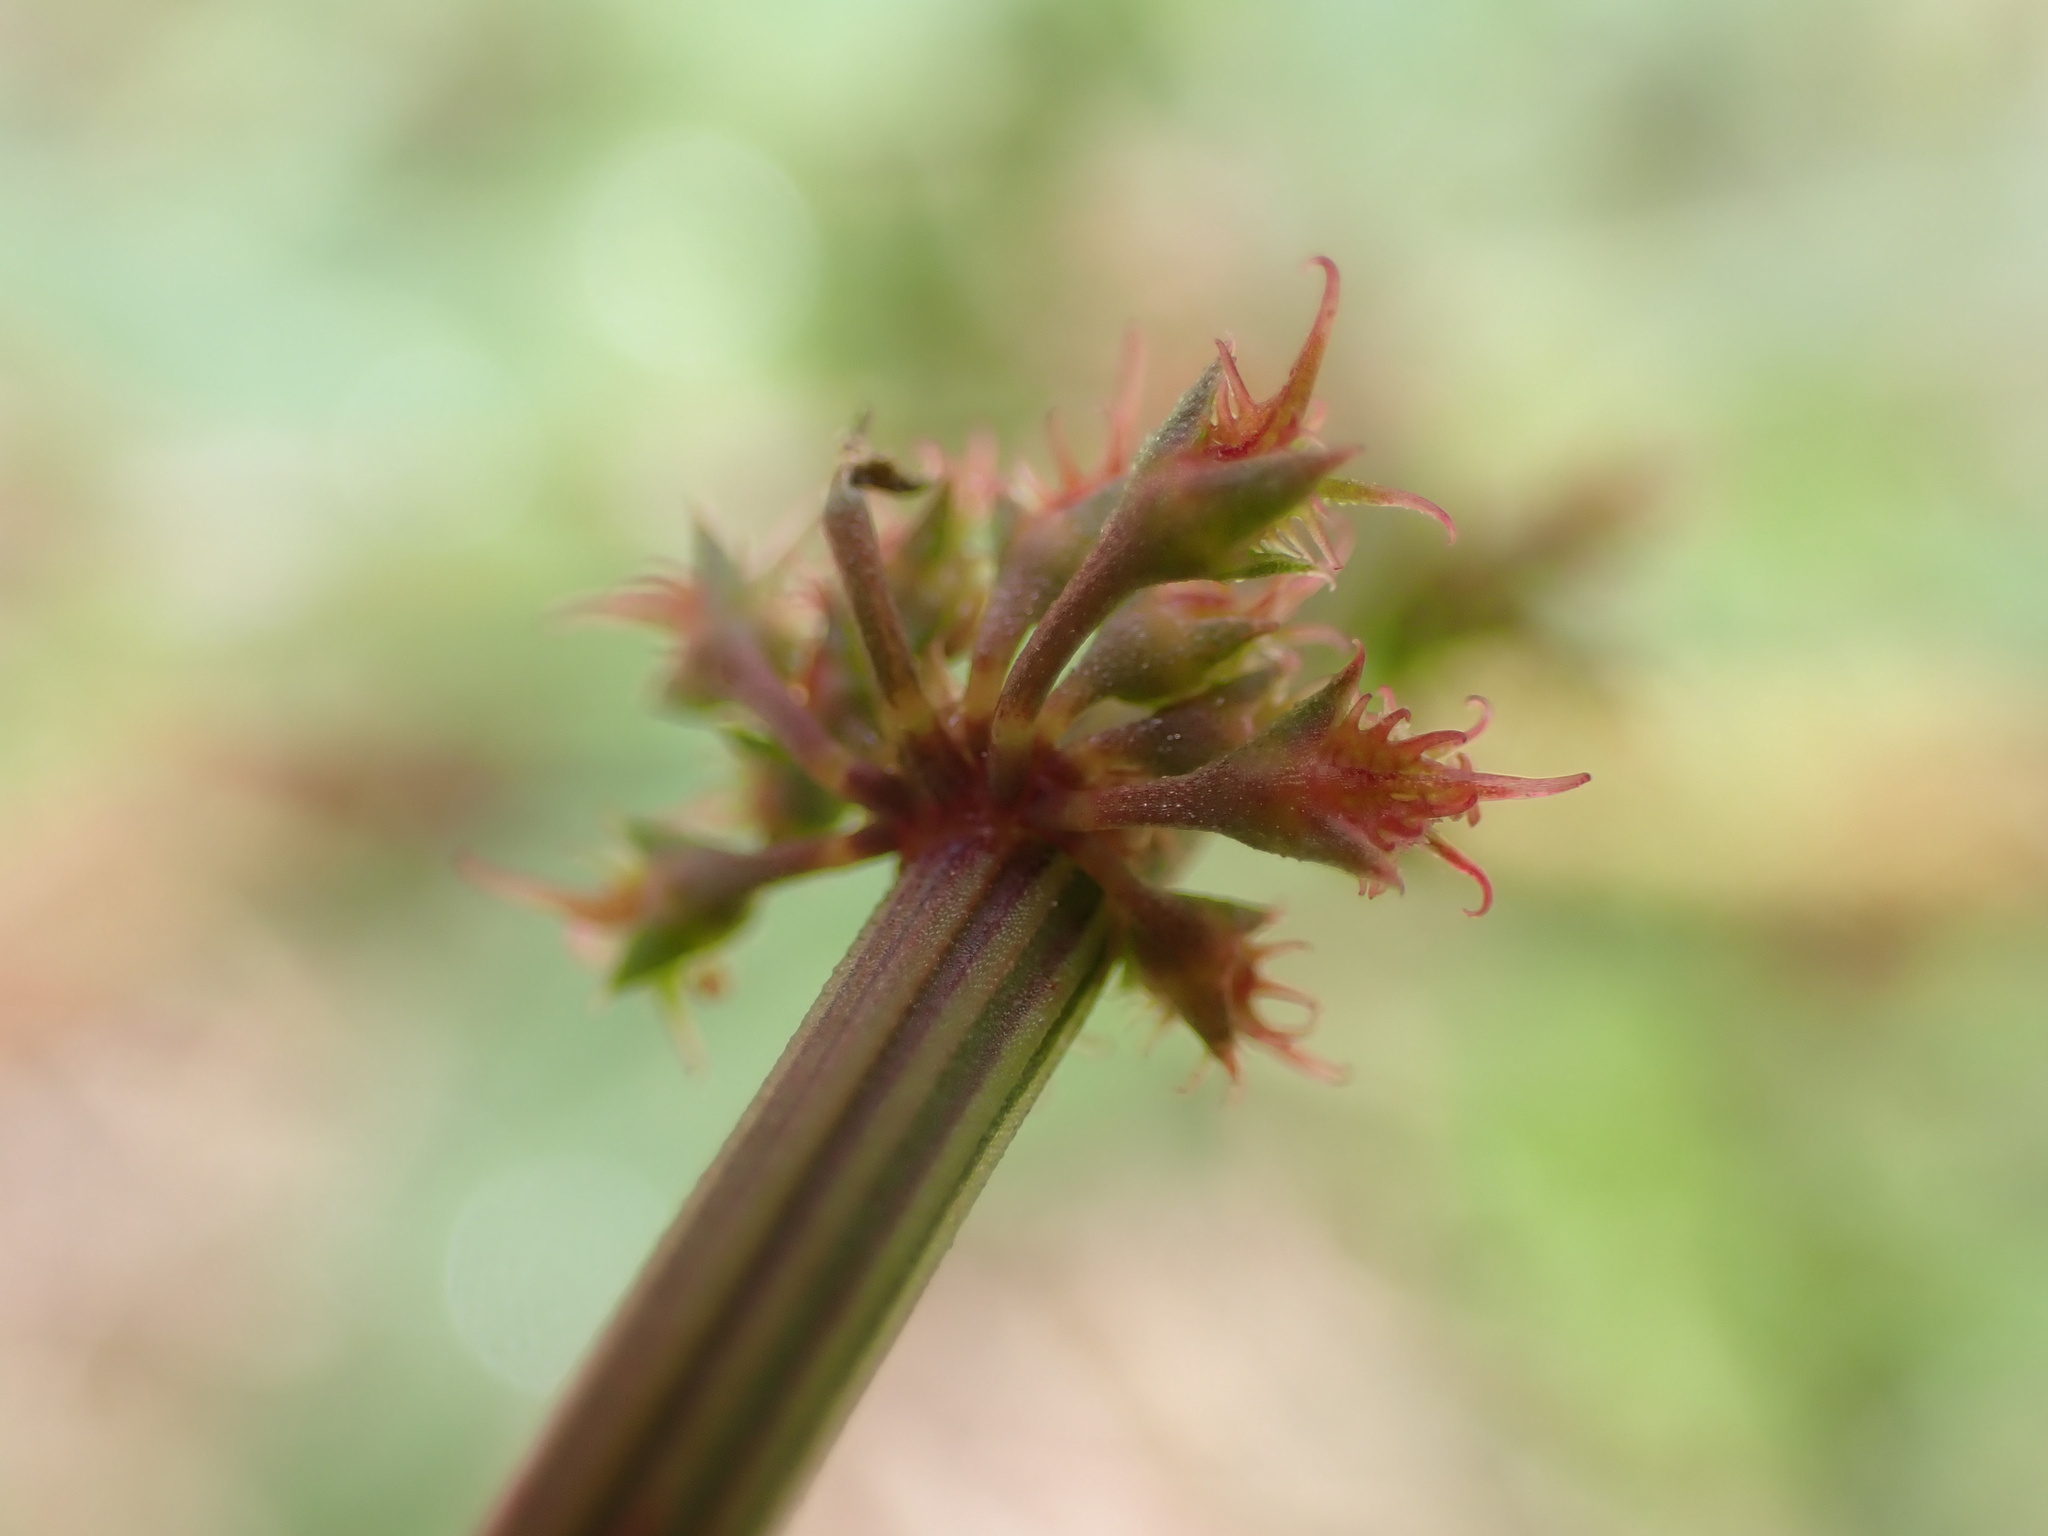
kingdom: Plantae
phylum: Tracheophyta
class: Magnoliopsida
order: Caryophyllales
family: Polygonaceae
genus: Rumex
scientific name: Rumex brownii
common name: Hooked dock
